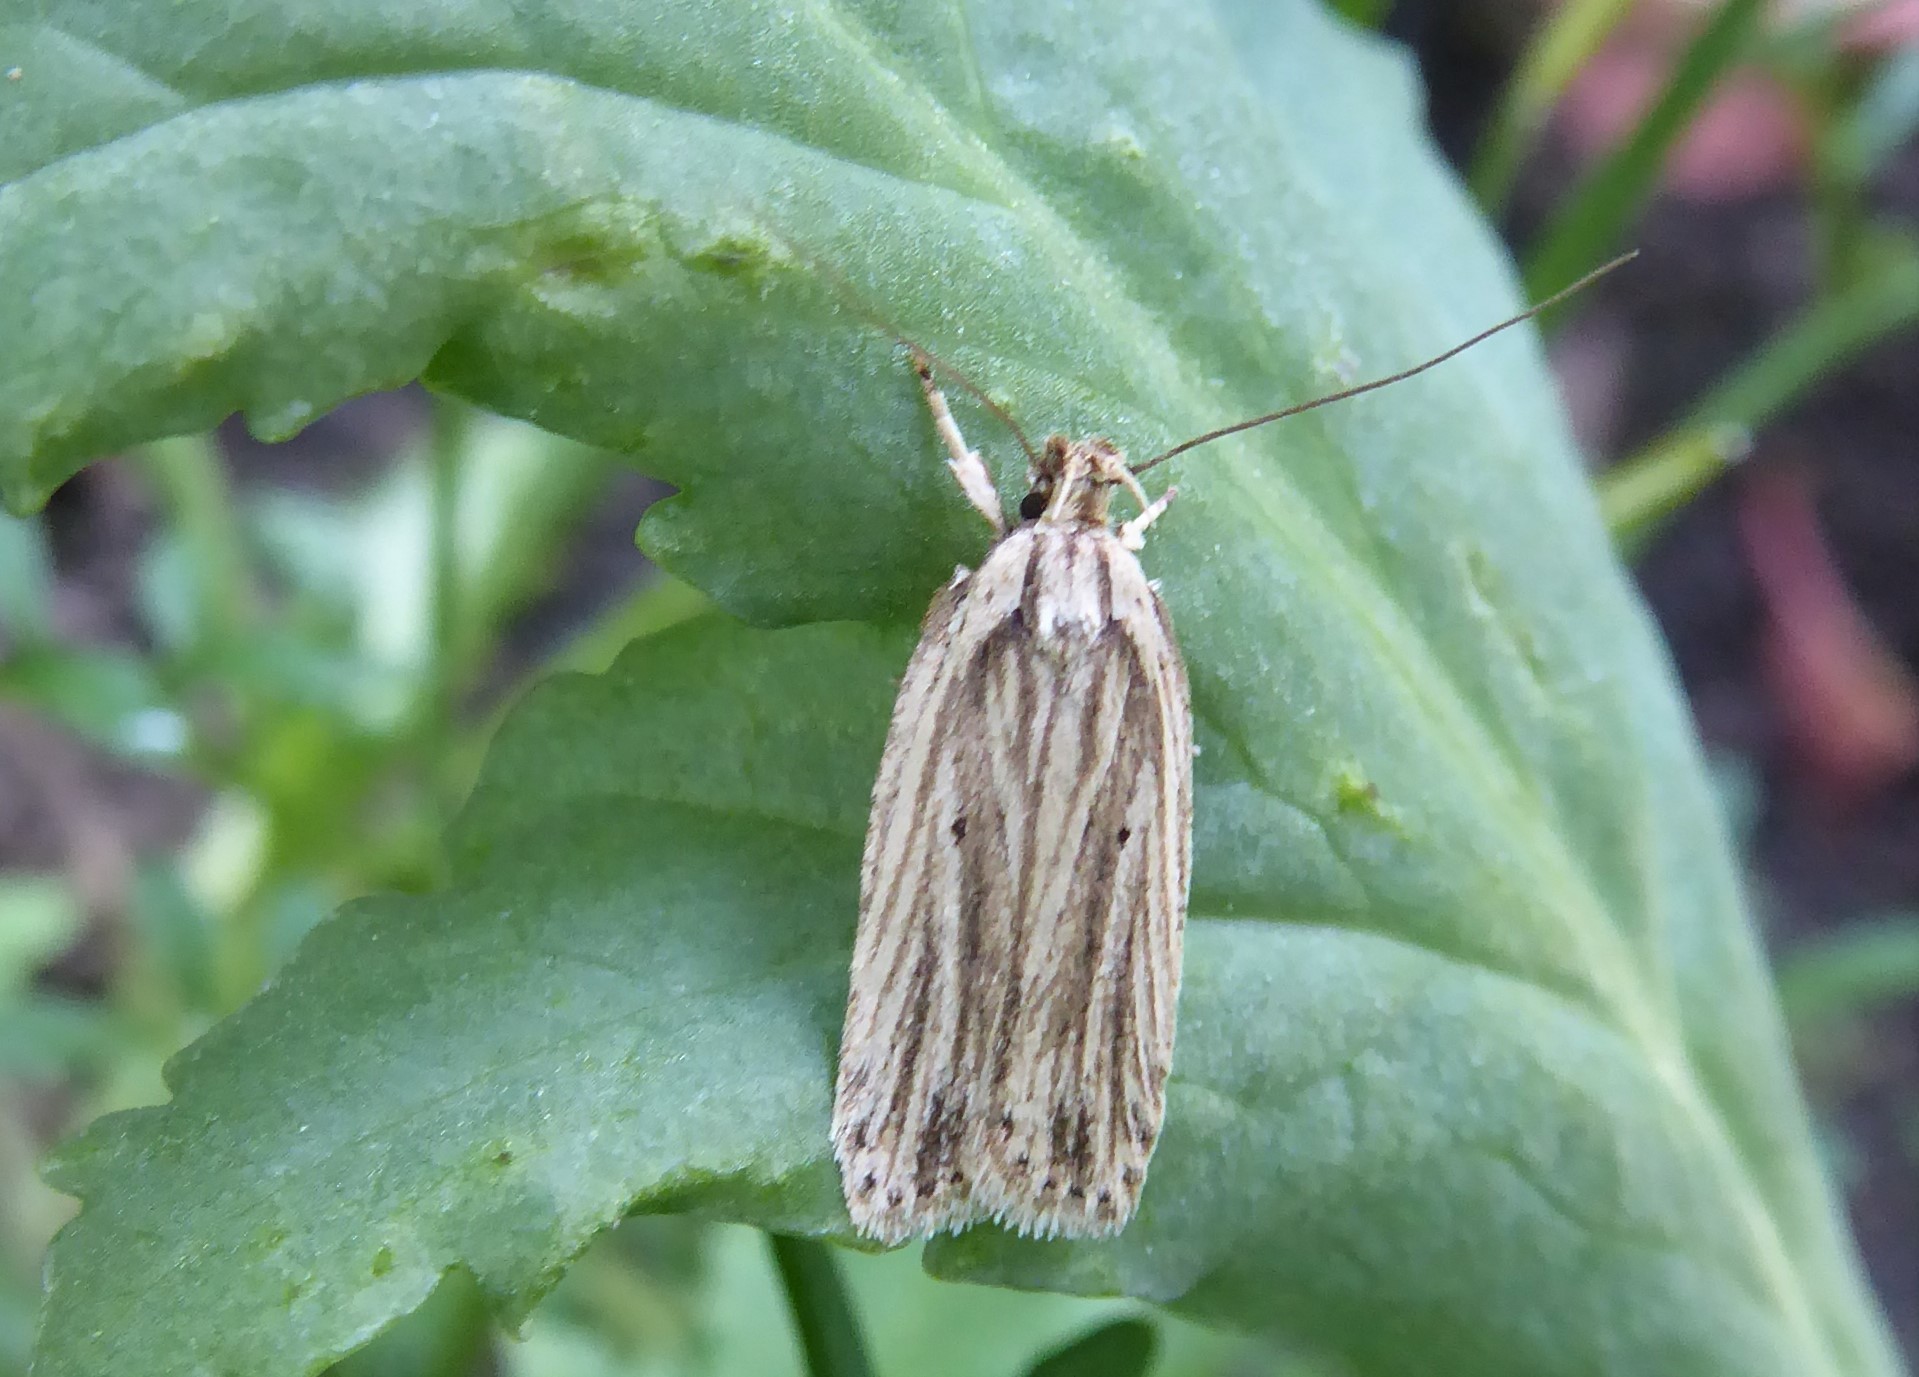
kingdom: Animalia
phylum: Arthropoda
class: Insecta
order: Lepidoptera
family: Depressariidae
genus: Agonopterix
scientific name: Agonopterix
